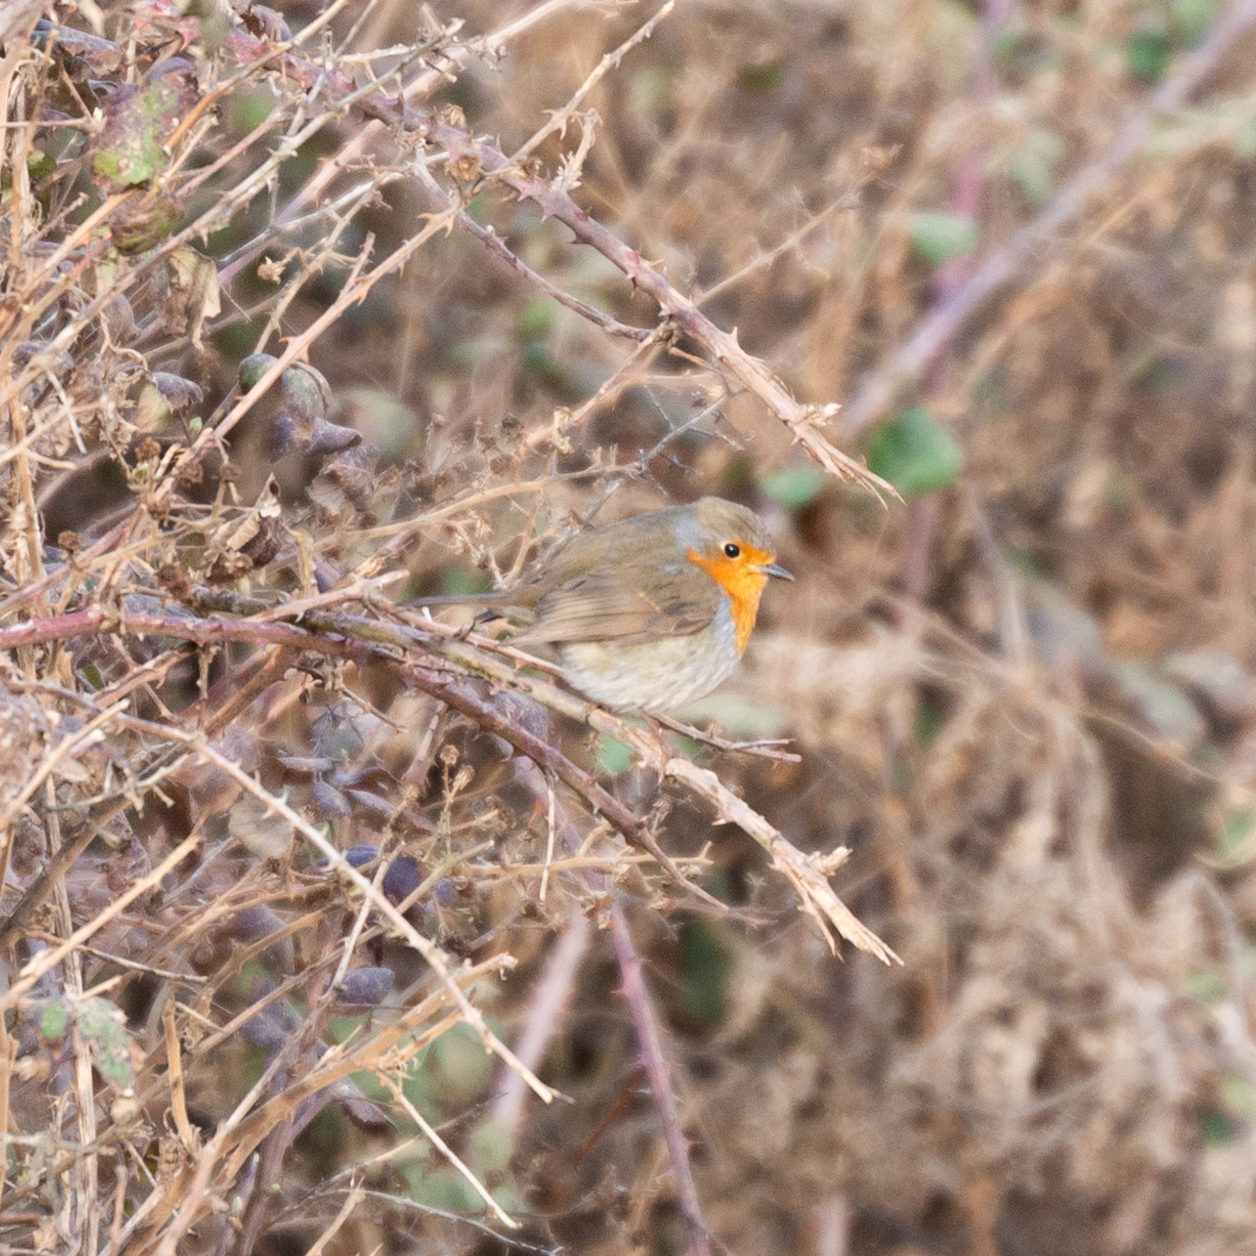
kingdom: Animalia
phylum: Chordata
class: Aves
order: Passeriformes
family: Muscicapidae
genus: Erithacus
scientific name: Erithacus rubecula
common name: European robin
